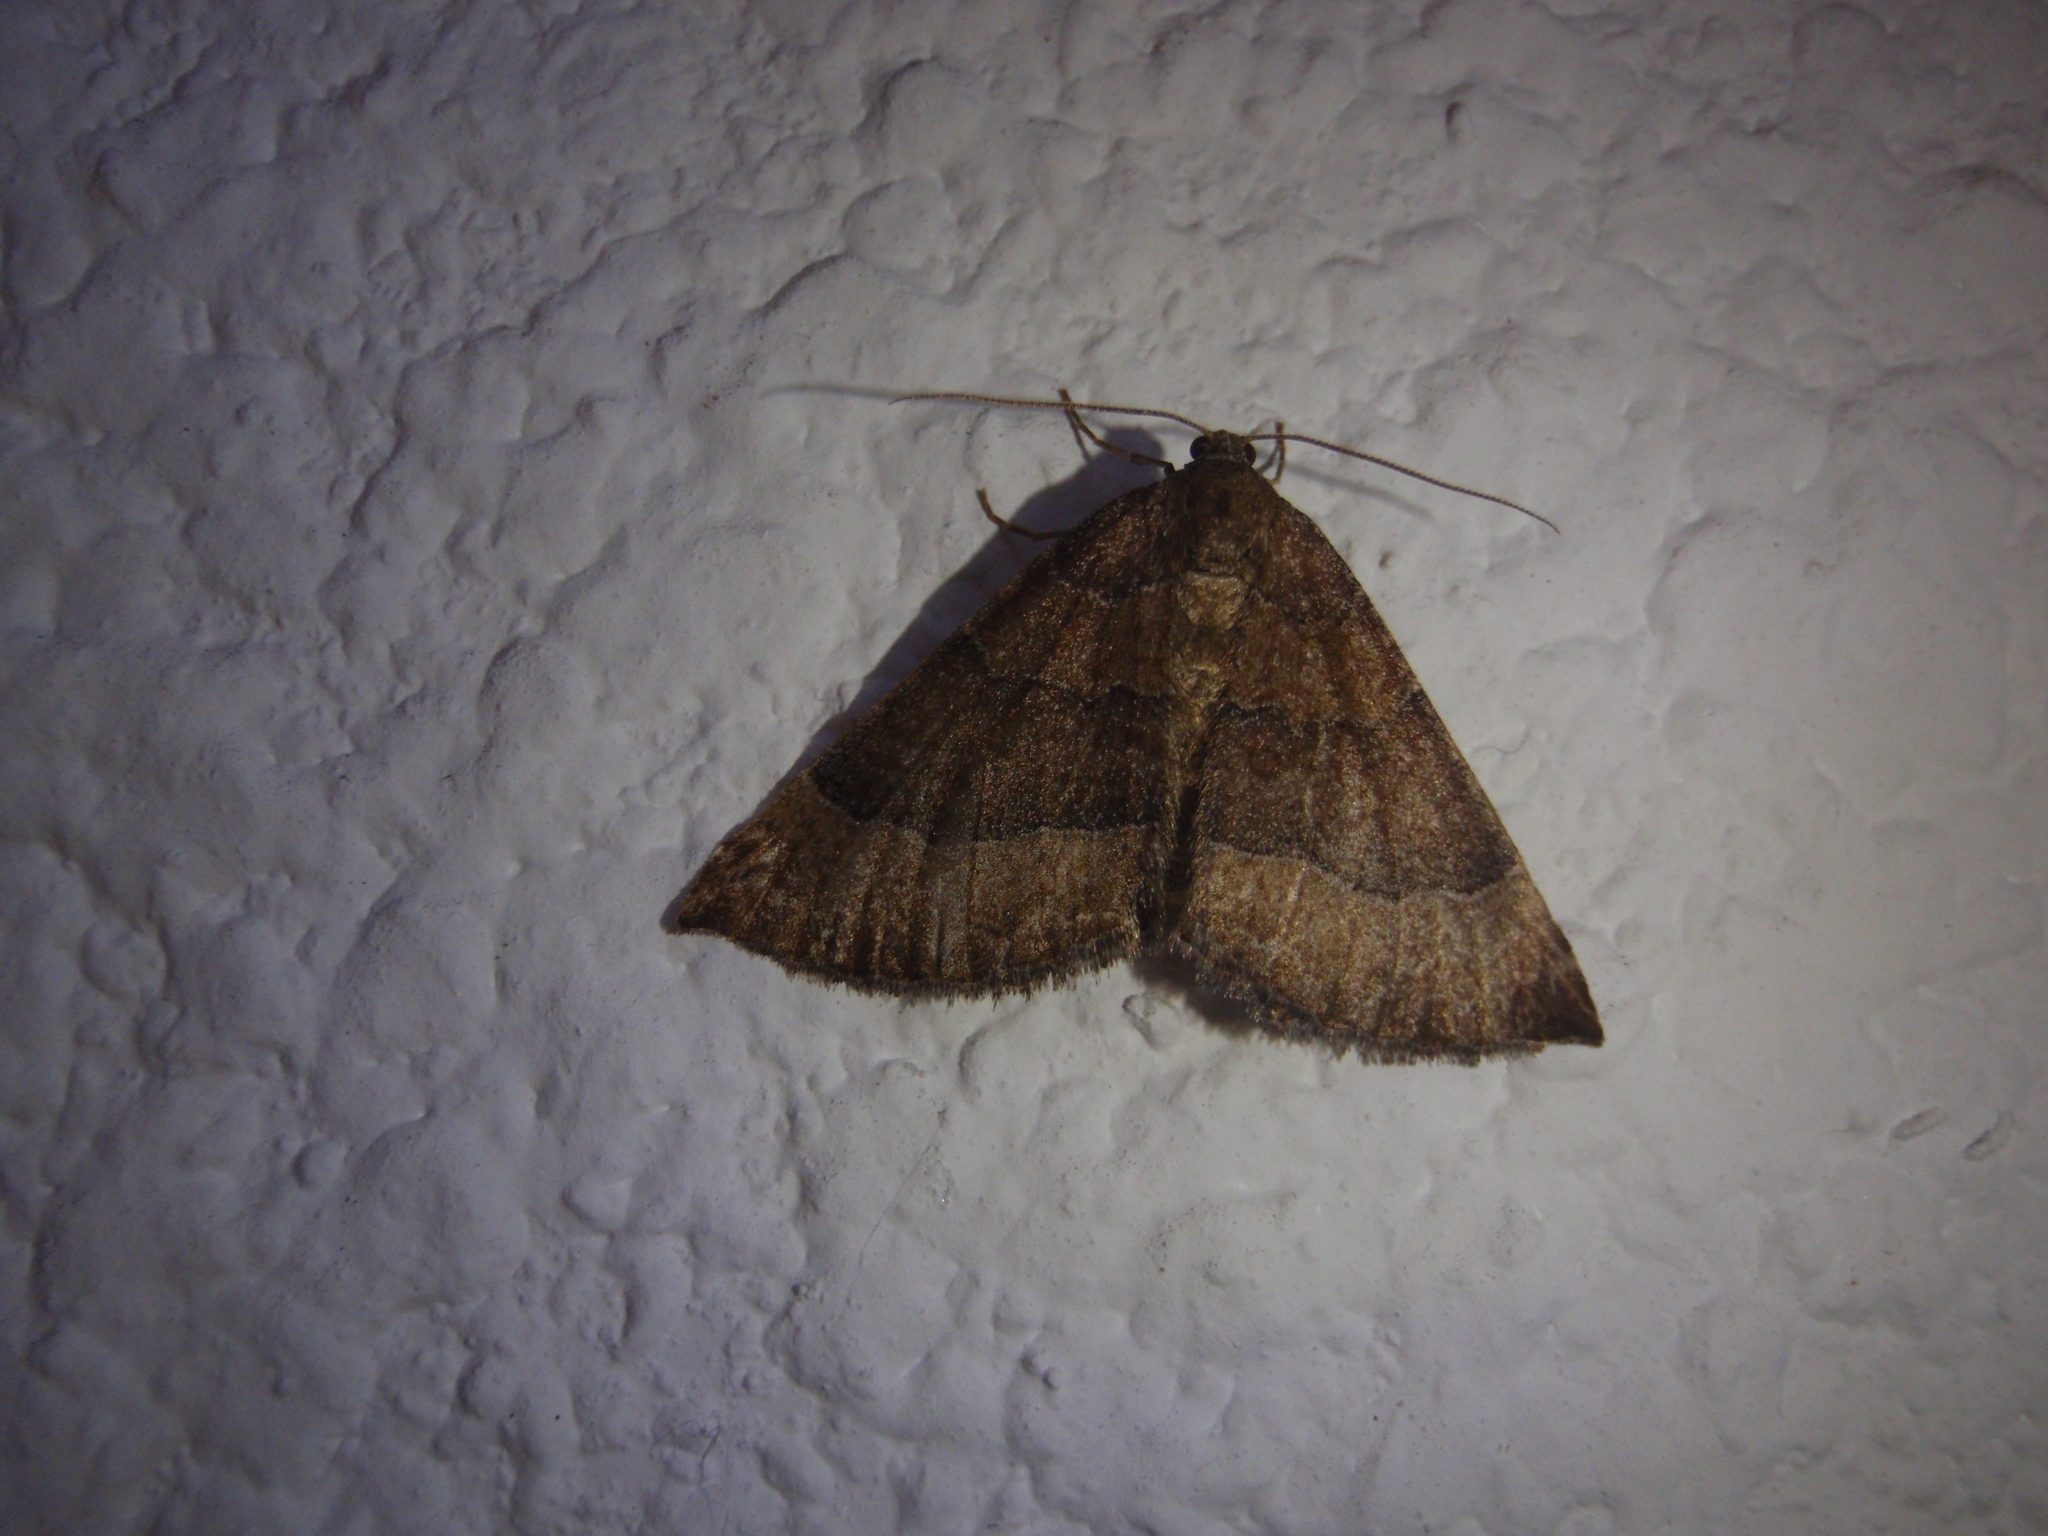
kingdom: Animalia
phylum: Arthropoda
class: Insecta
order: Lepidoptera
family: Erebidae
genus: Hypena
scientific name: Hypena proboscidalis
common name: Snout
